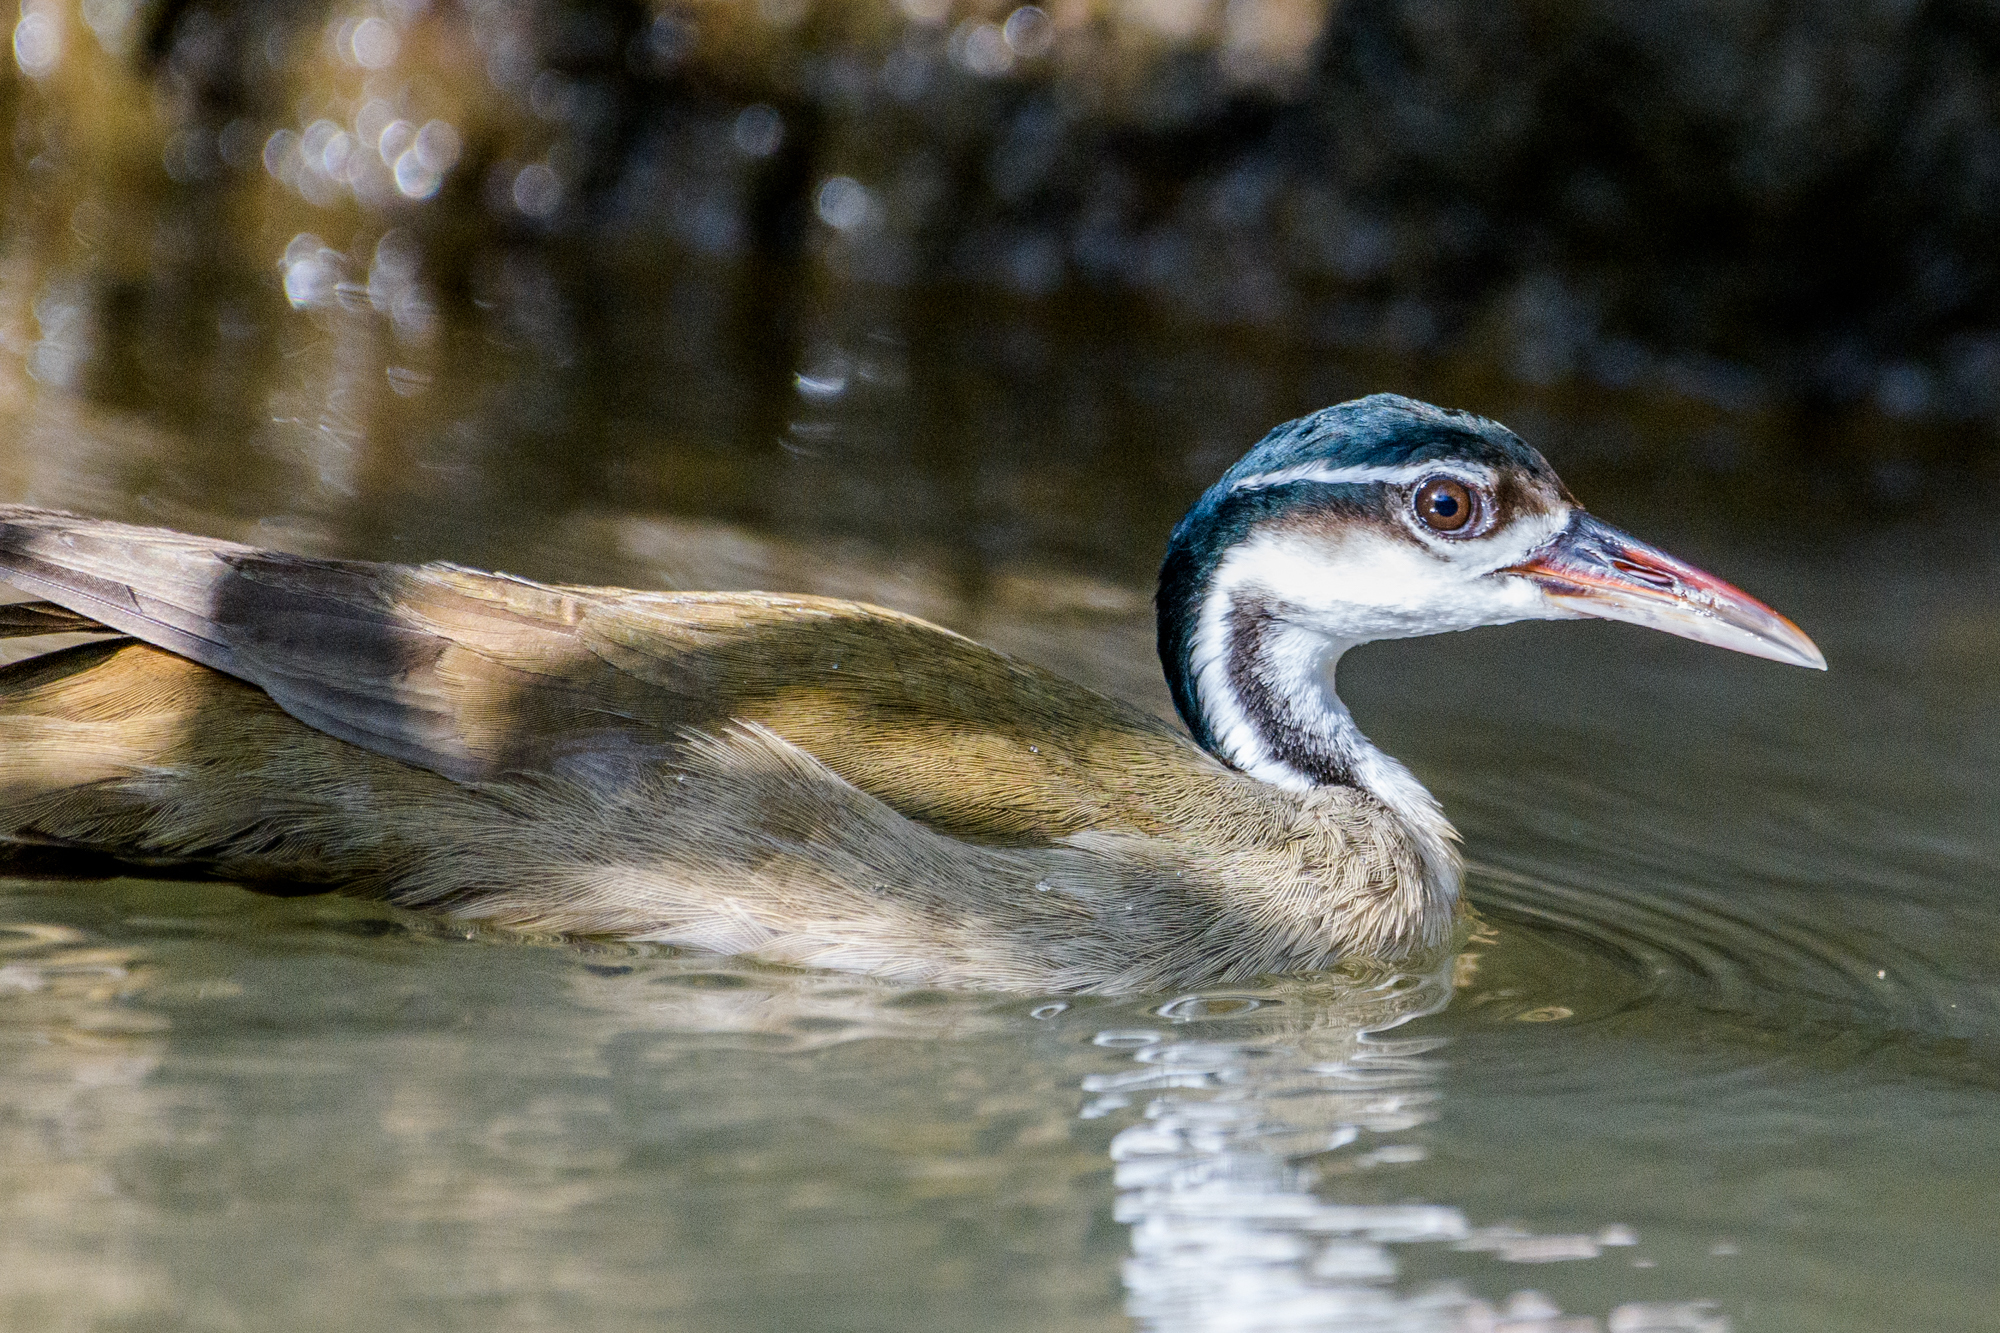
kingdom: Animalia
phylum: Chordata
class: Aves
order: Gruiformes
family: Heliornithidae
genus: Heliornis
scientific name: Heliornis fulica
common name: Sungrebe
